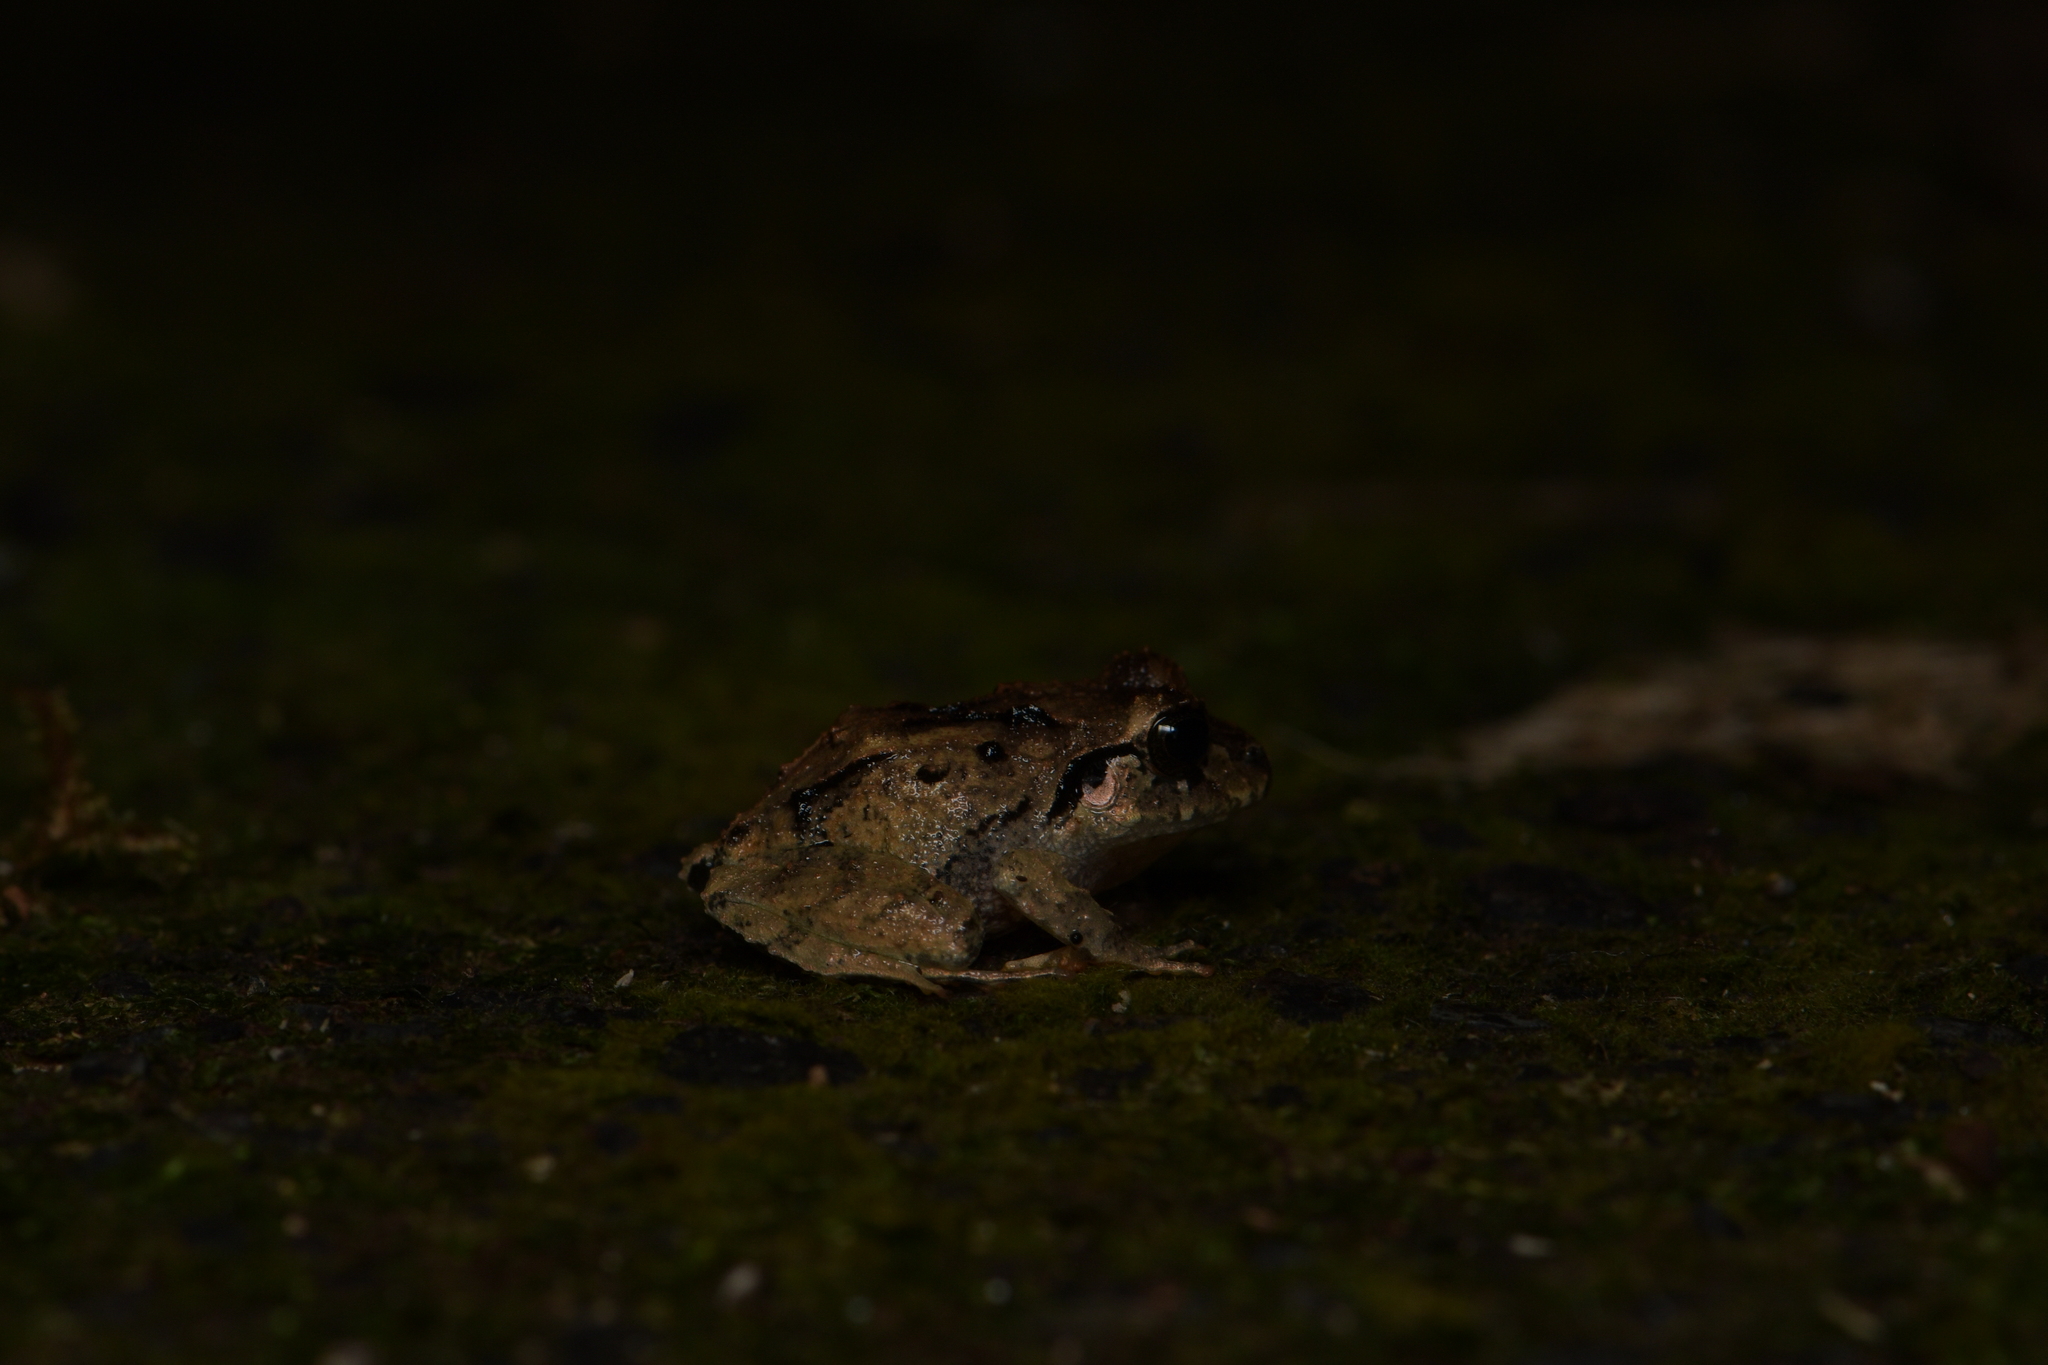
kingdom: Animalia
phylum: Chordata
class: Amphibia
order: Anura
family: Craugastoridae
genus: Craugastor
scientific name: Craugastor megacephalus
